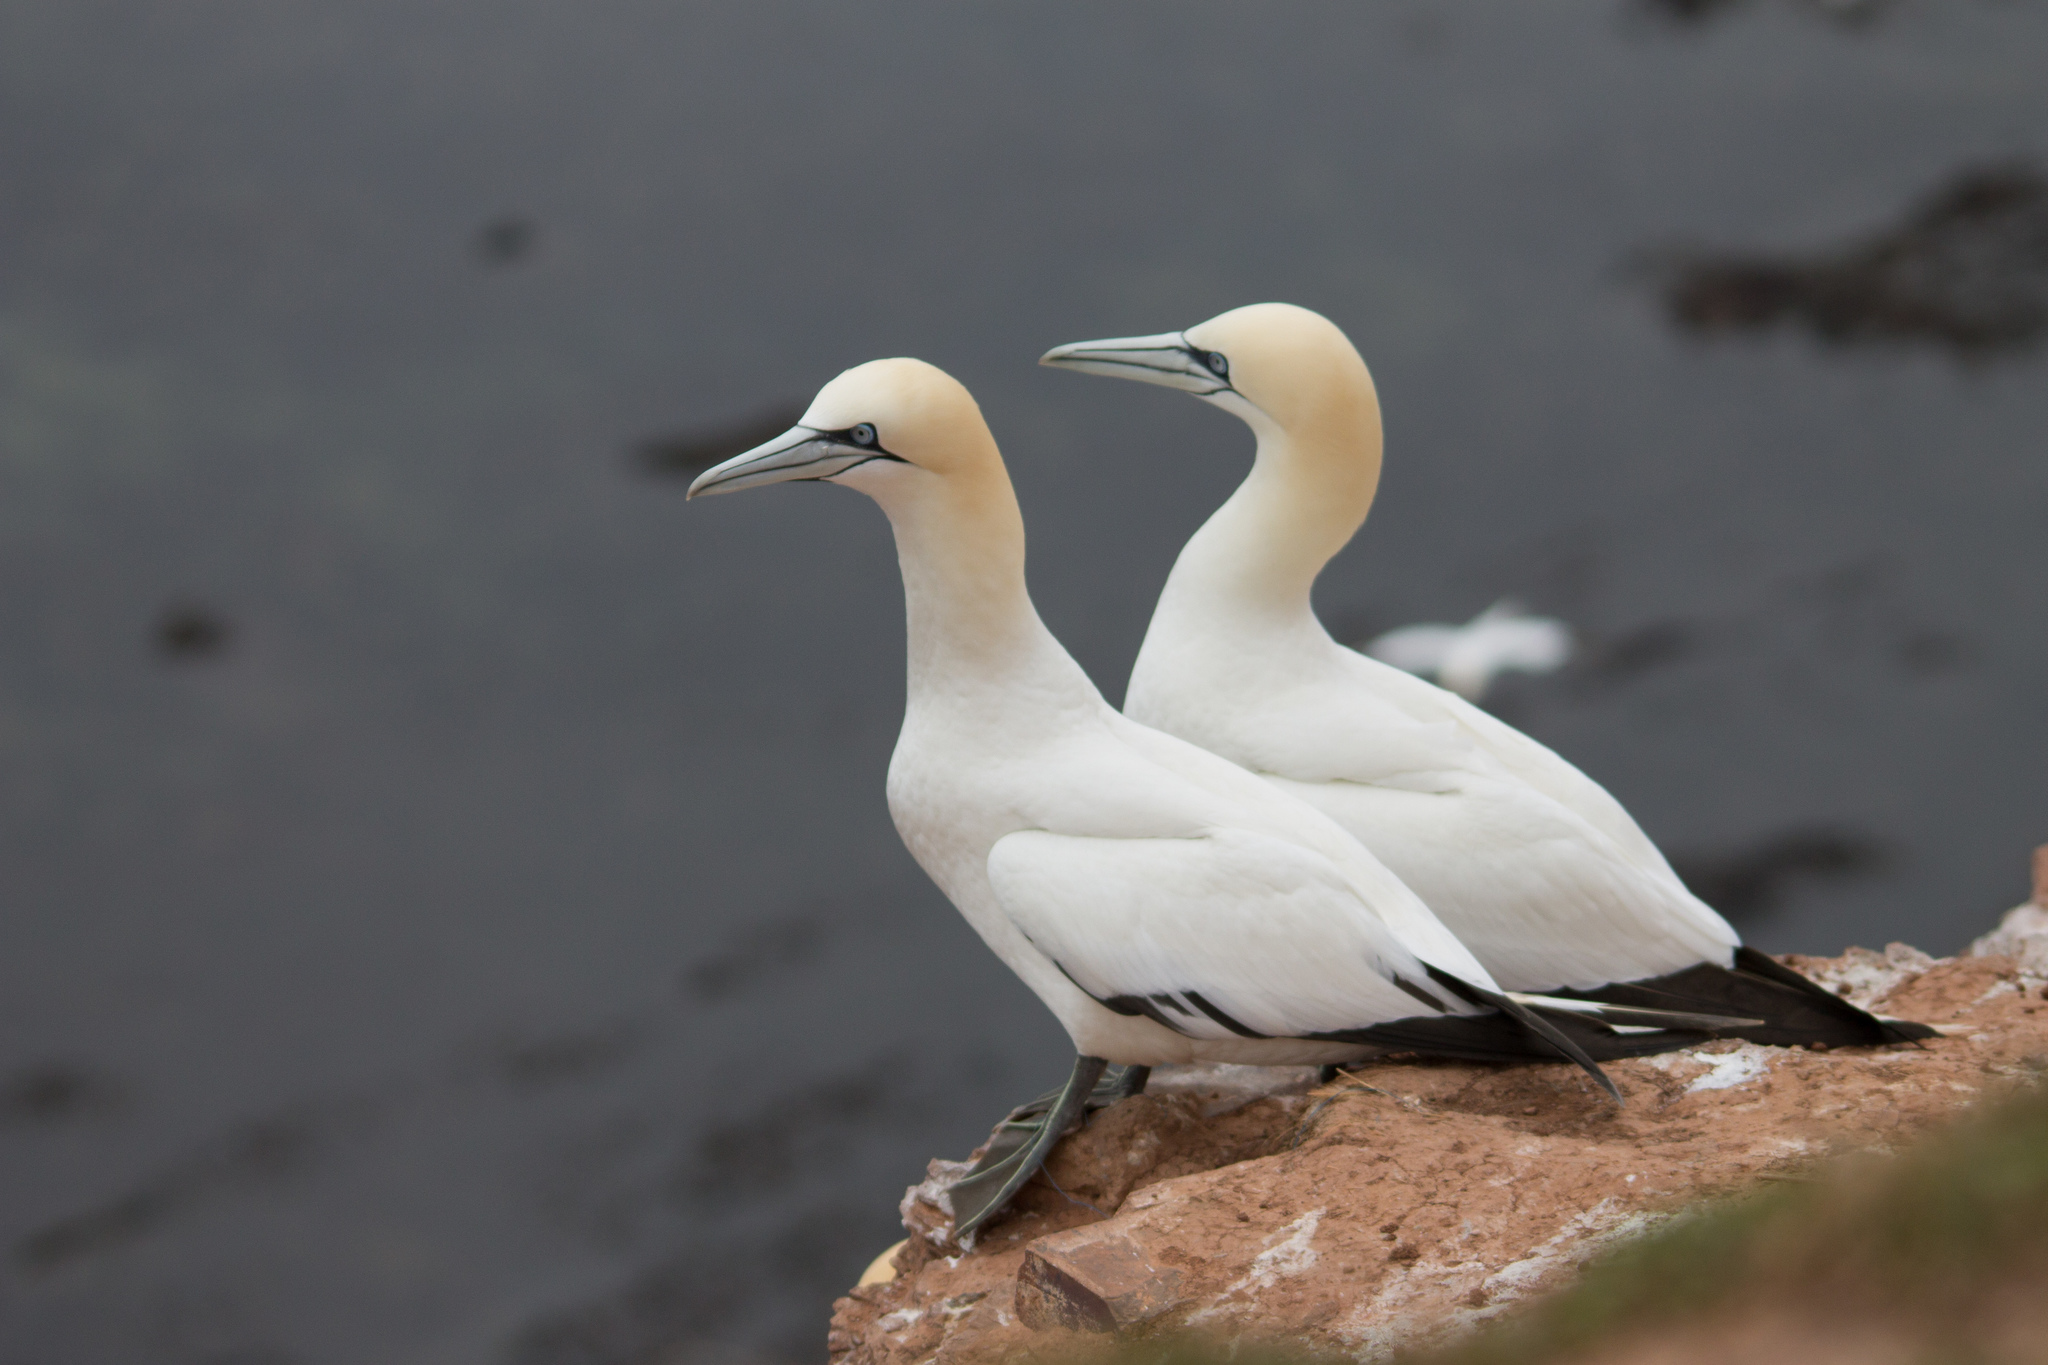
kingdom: Animalia
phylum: Chordata
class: Aves
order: Suliformes
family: Sulidae
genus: Morus
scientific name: Morus bassanus
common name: Northern gannet
